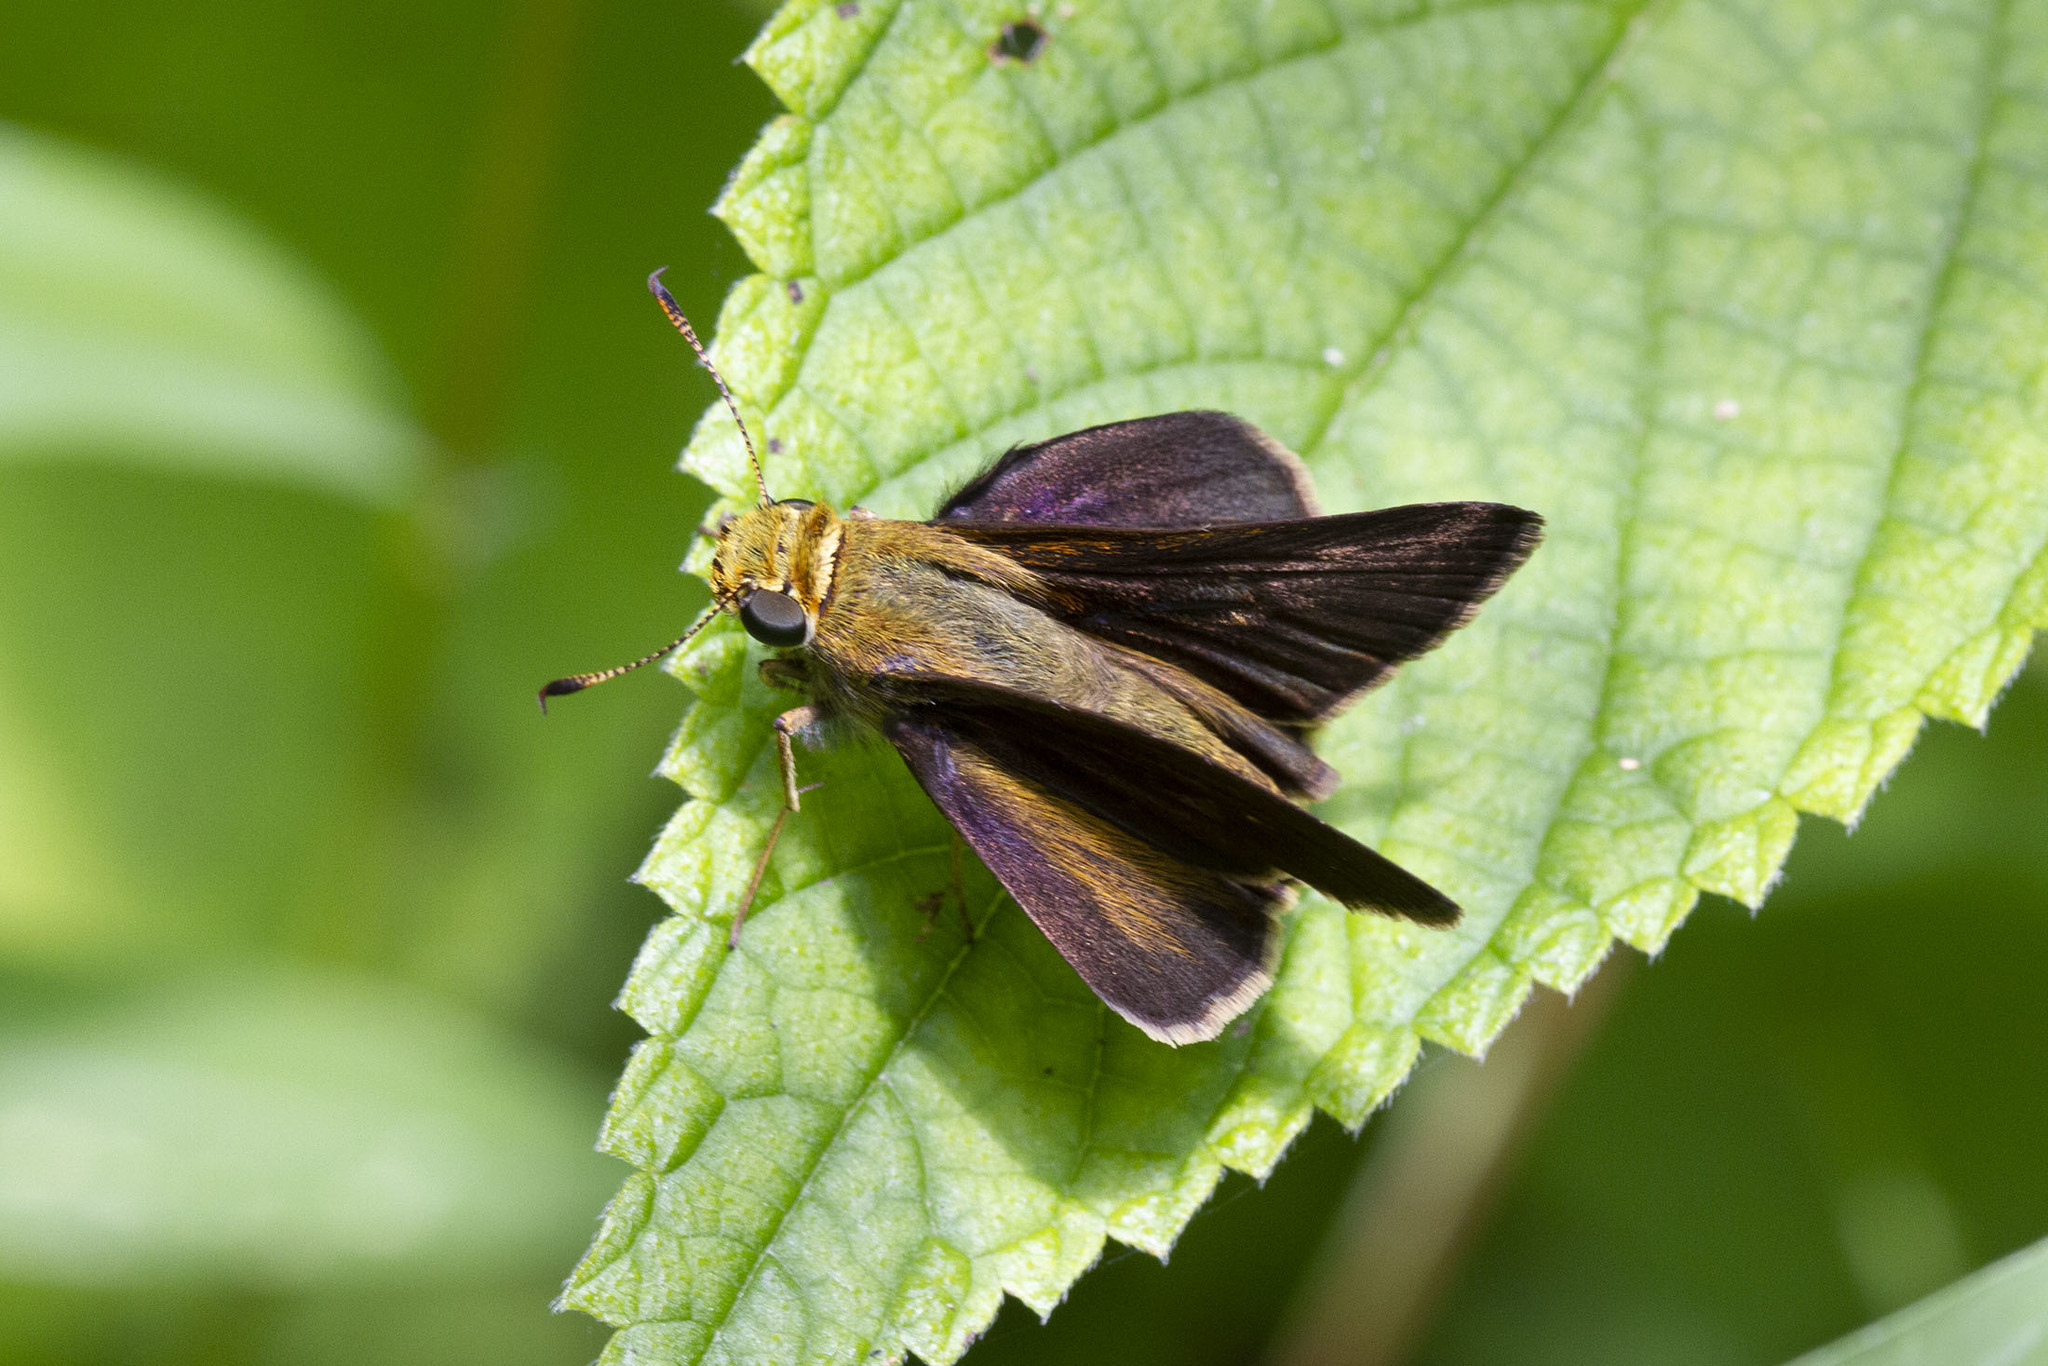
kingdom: Animalia
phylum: Arthropoda
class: Insecta
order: Lepidoptera
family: Hesperiidae
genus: Euphyes
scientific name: Euphyes vestris
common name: Dun skipper
